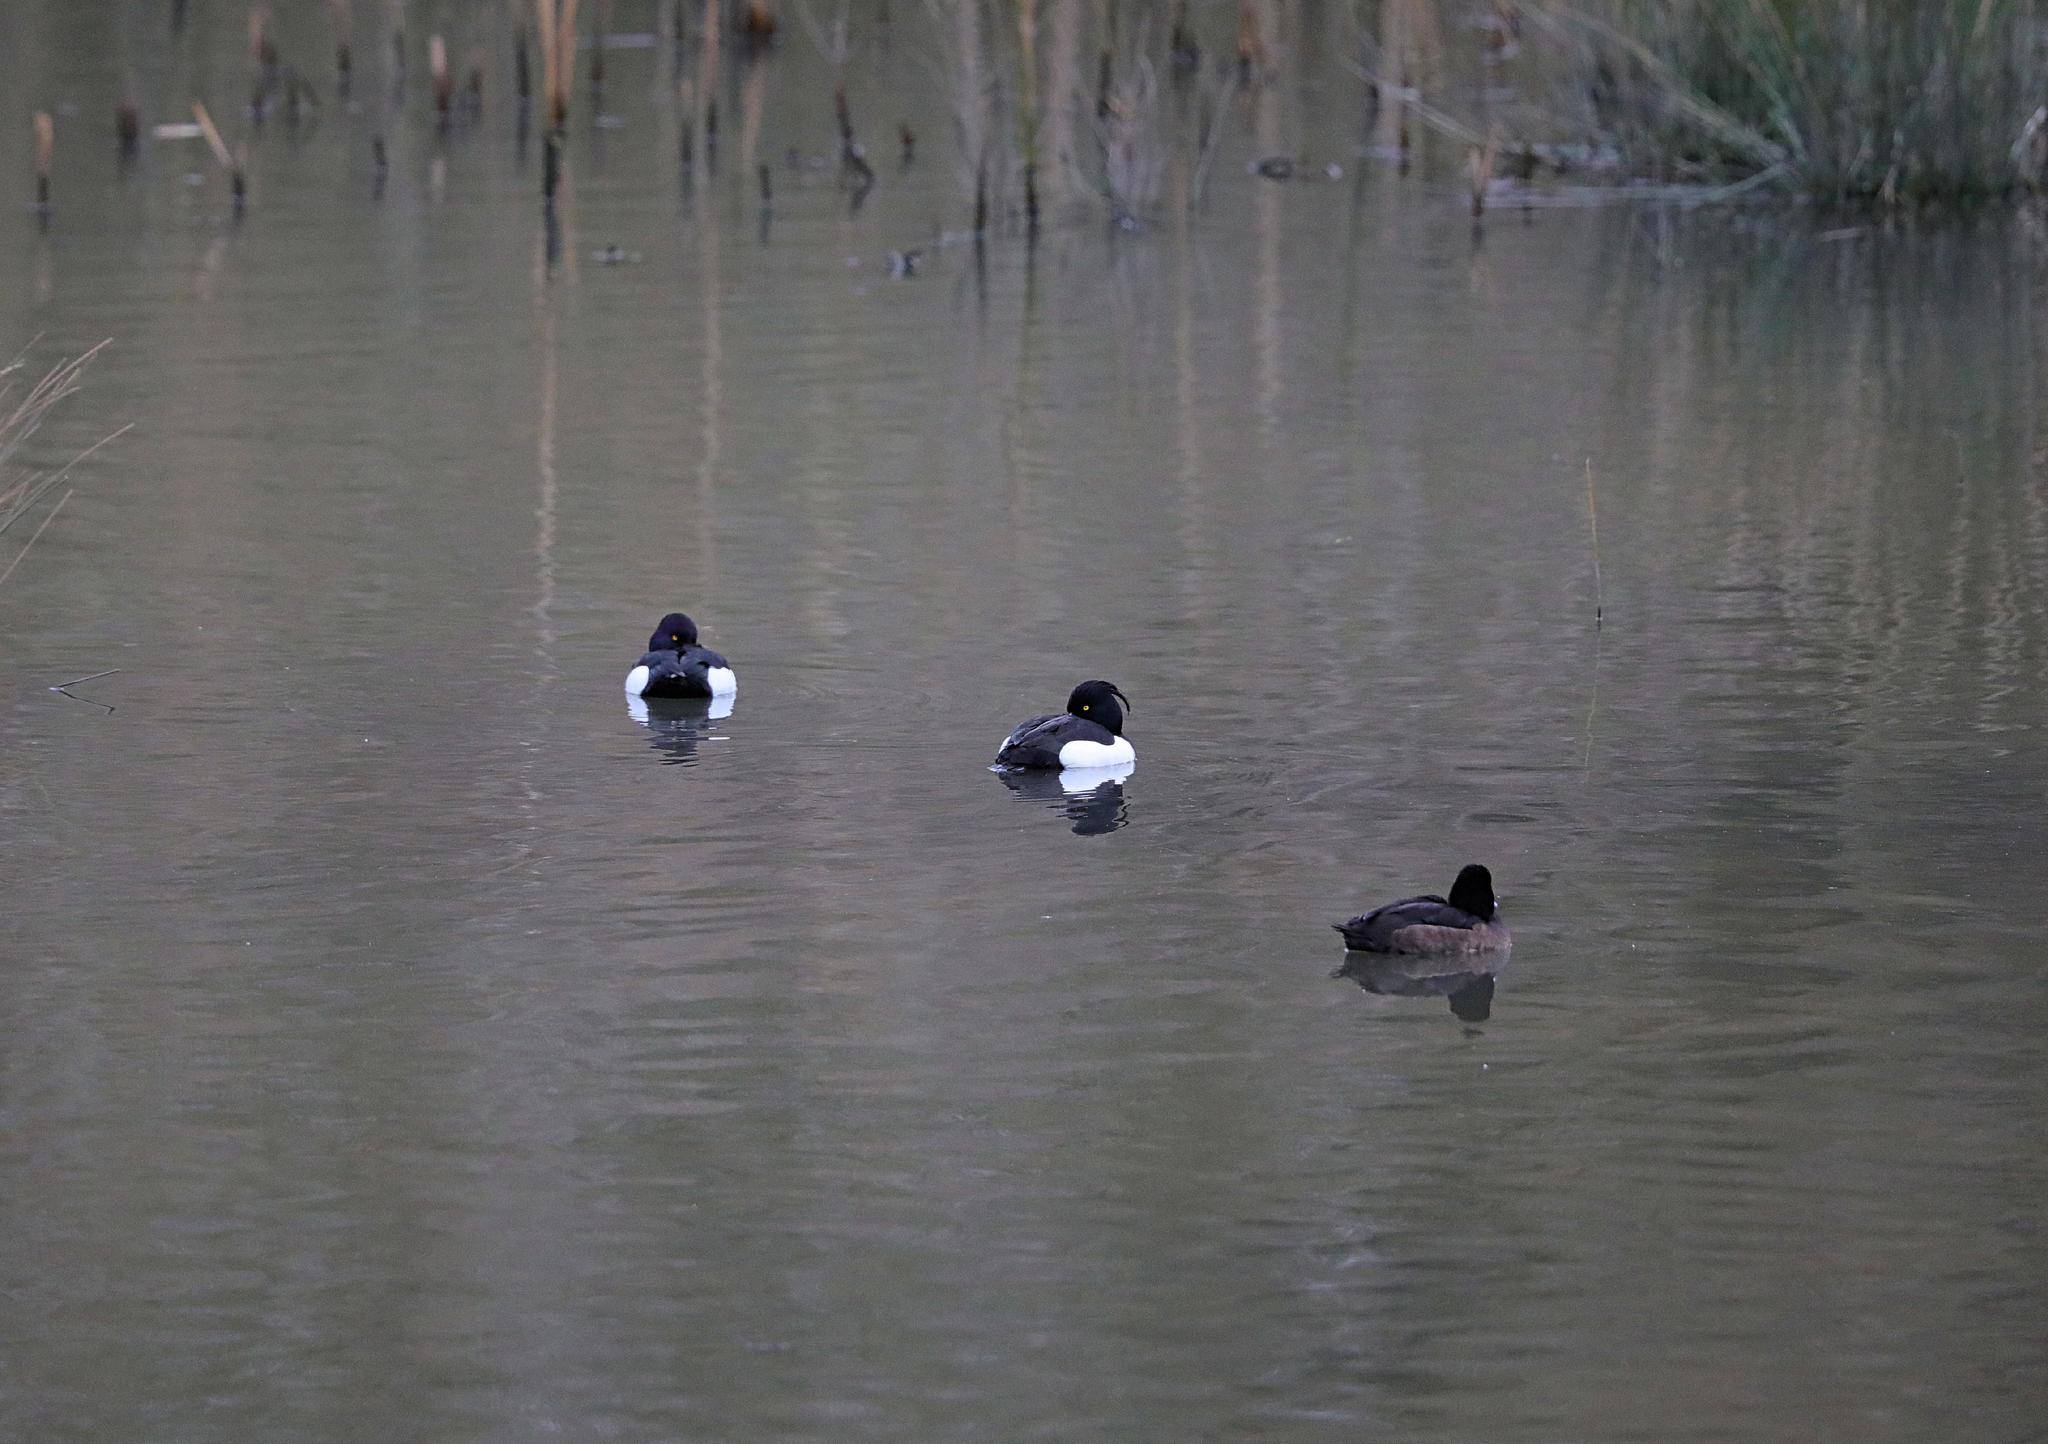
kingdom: Animalia
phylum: Chordata
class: Aves
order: Anseriformes
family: Anatidae
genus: Aythya
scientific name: Aythya fuligula
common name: Tufted duck
